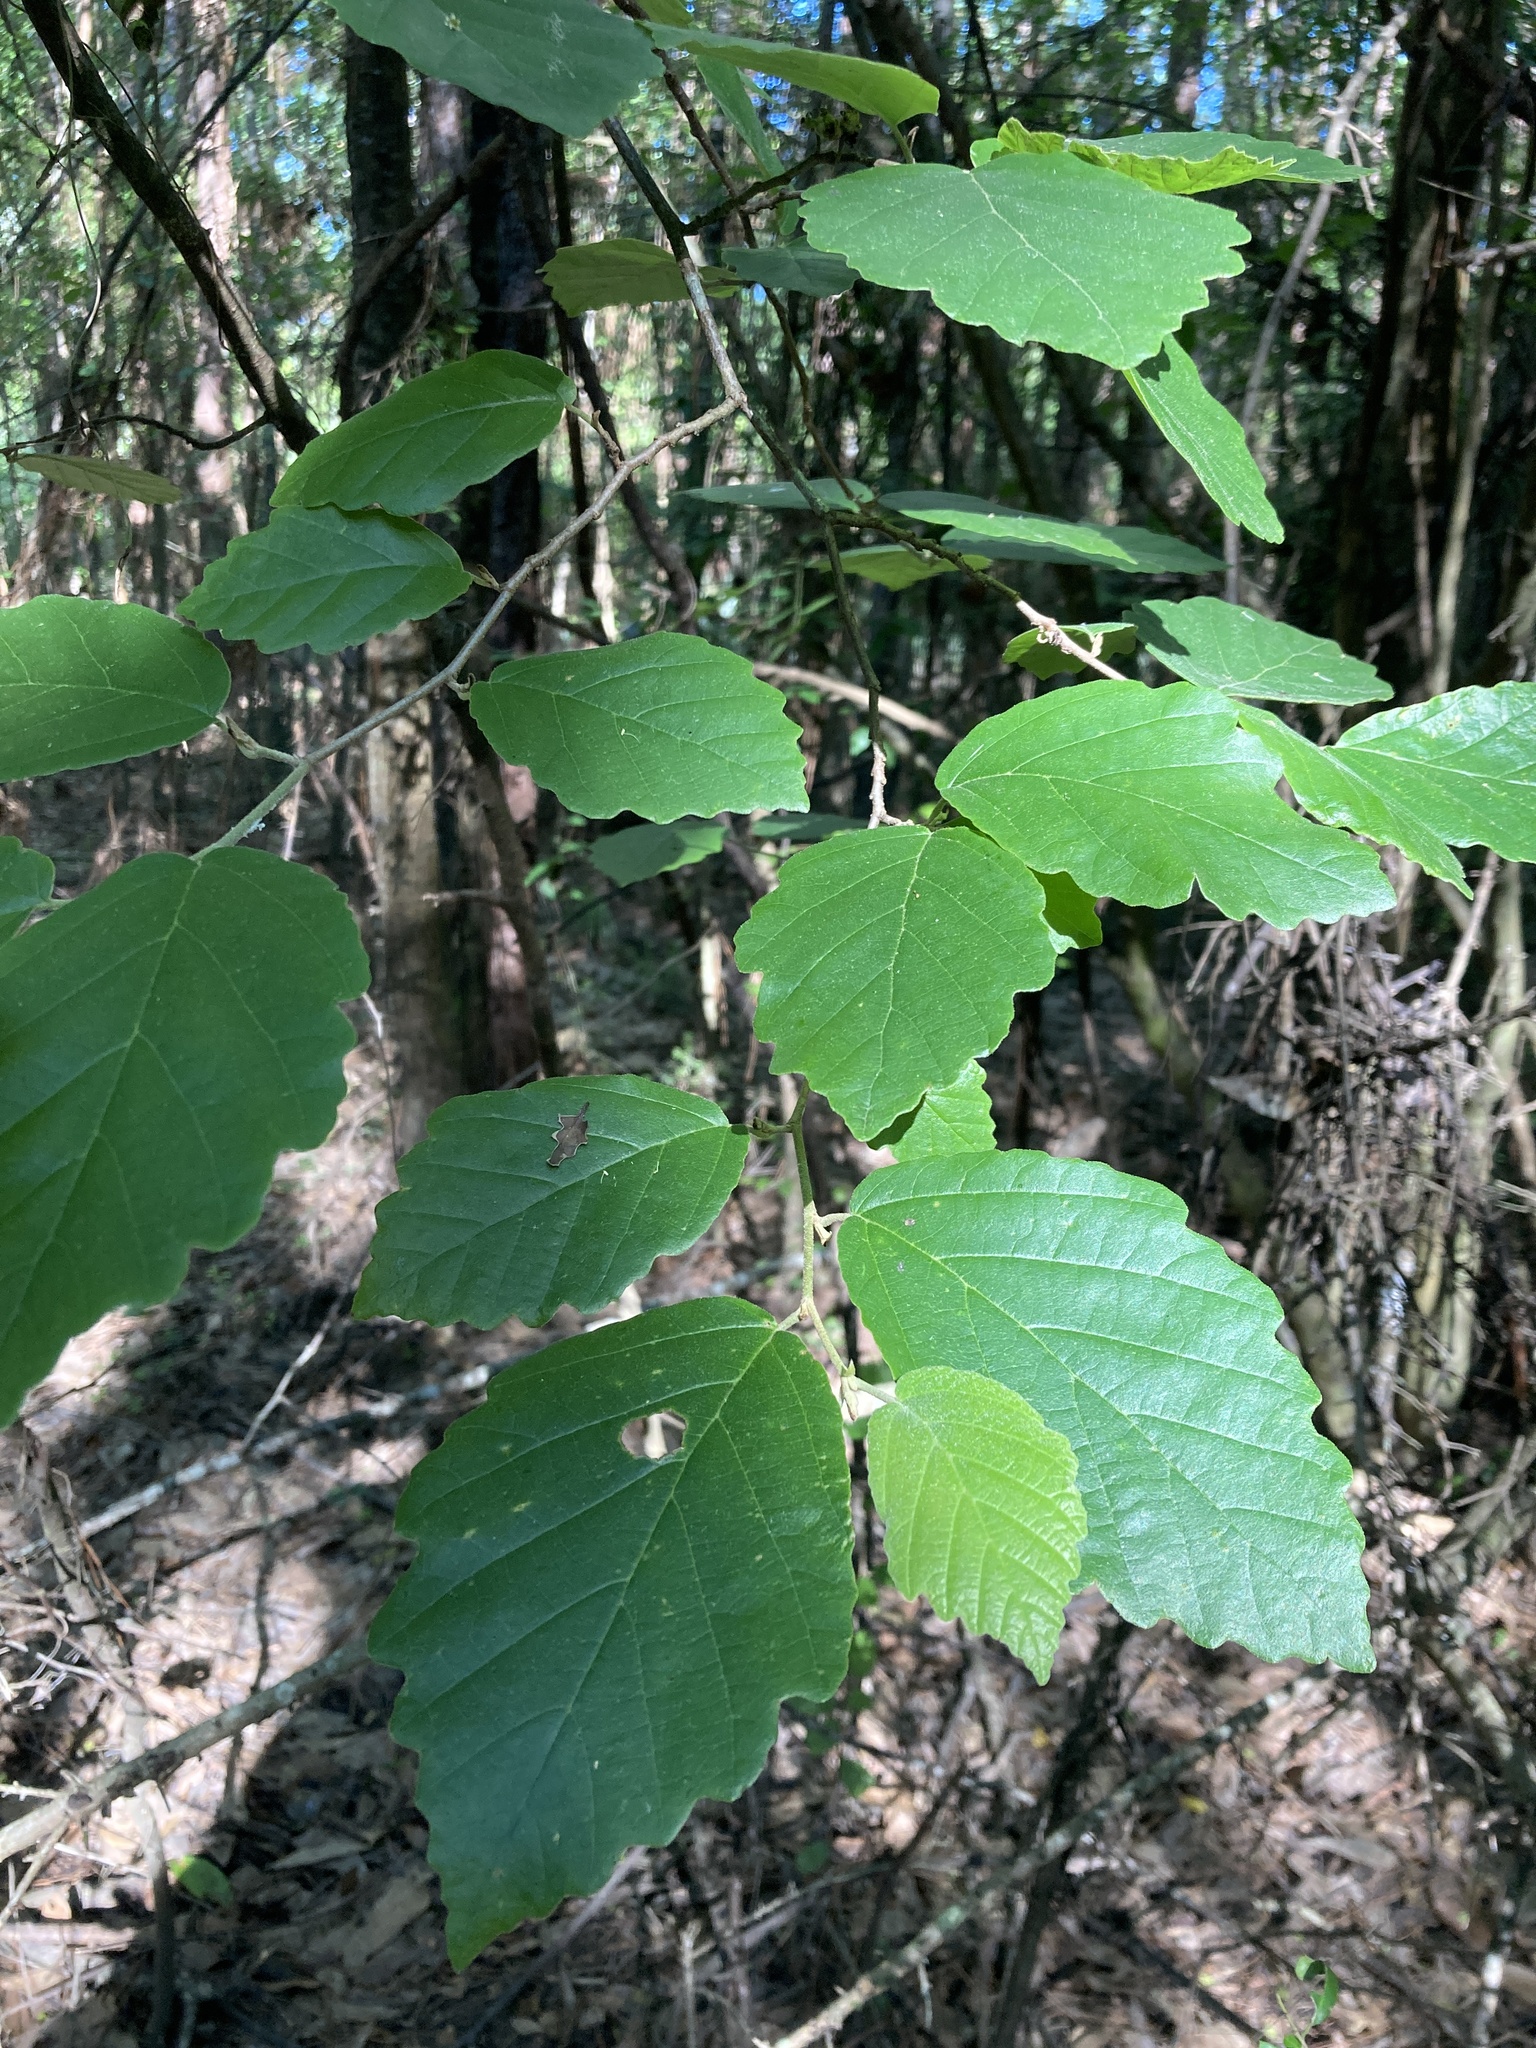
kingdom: Plantae
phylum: Tracheophyta
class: Magnoliopsida
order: Saxifragales
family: Hamamelidaceae
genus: Hamamelis
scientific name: Hamamelis virginiana
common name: Witch-hazel
